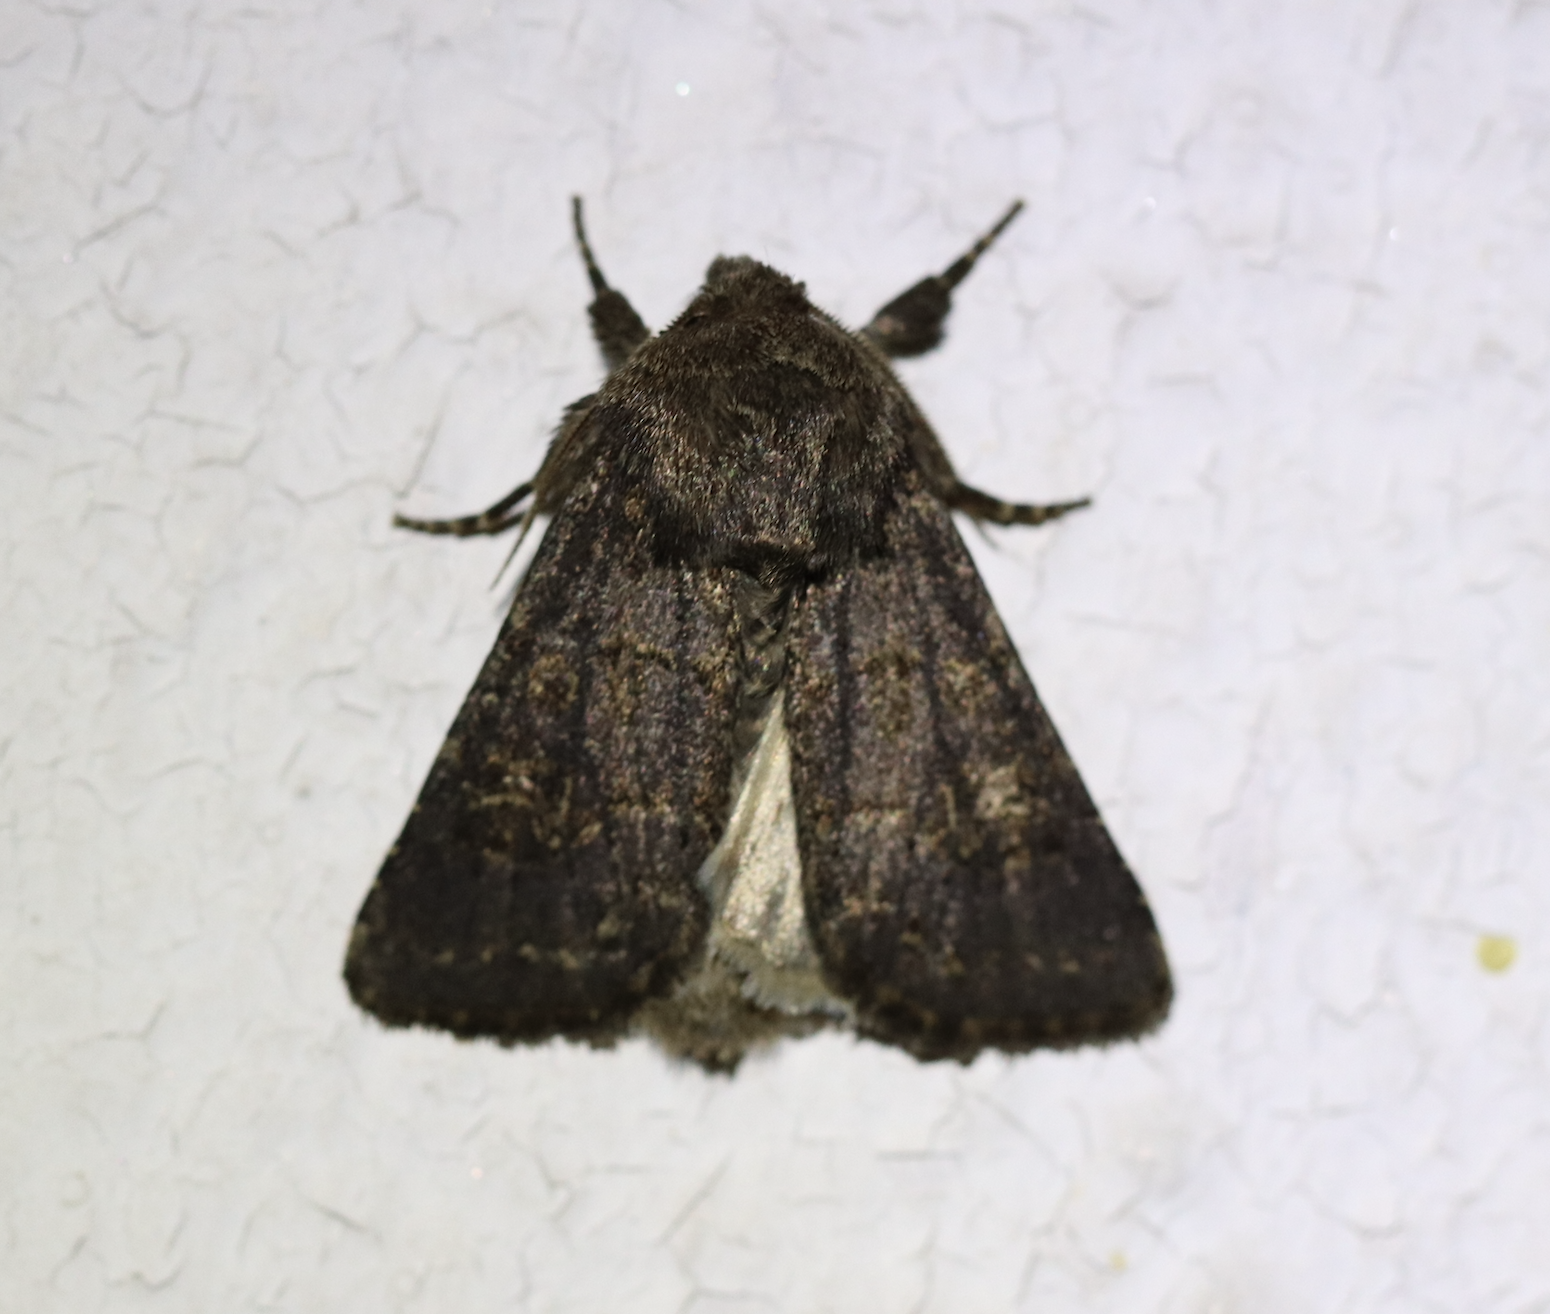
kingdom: Animalia
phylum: Arthropoda
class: Insecta
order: Lepidoptera
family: Noctuidae
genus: Tholera
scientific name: Tholera cespitis
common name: Hedge rustic
